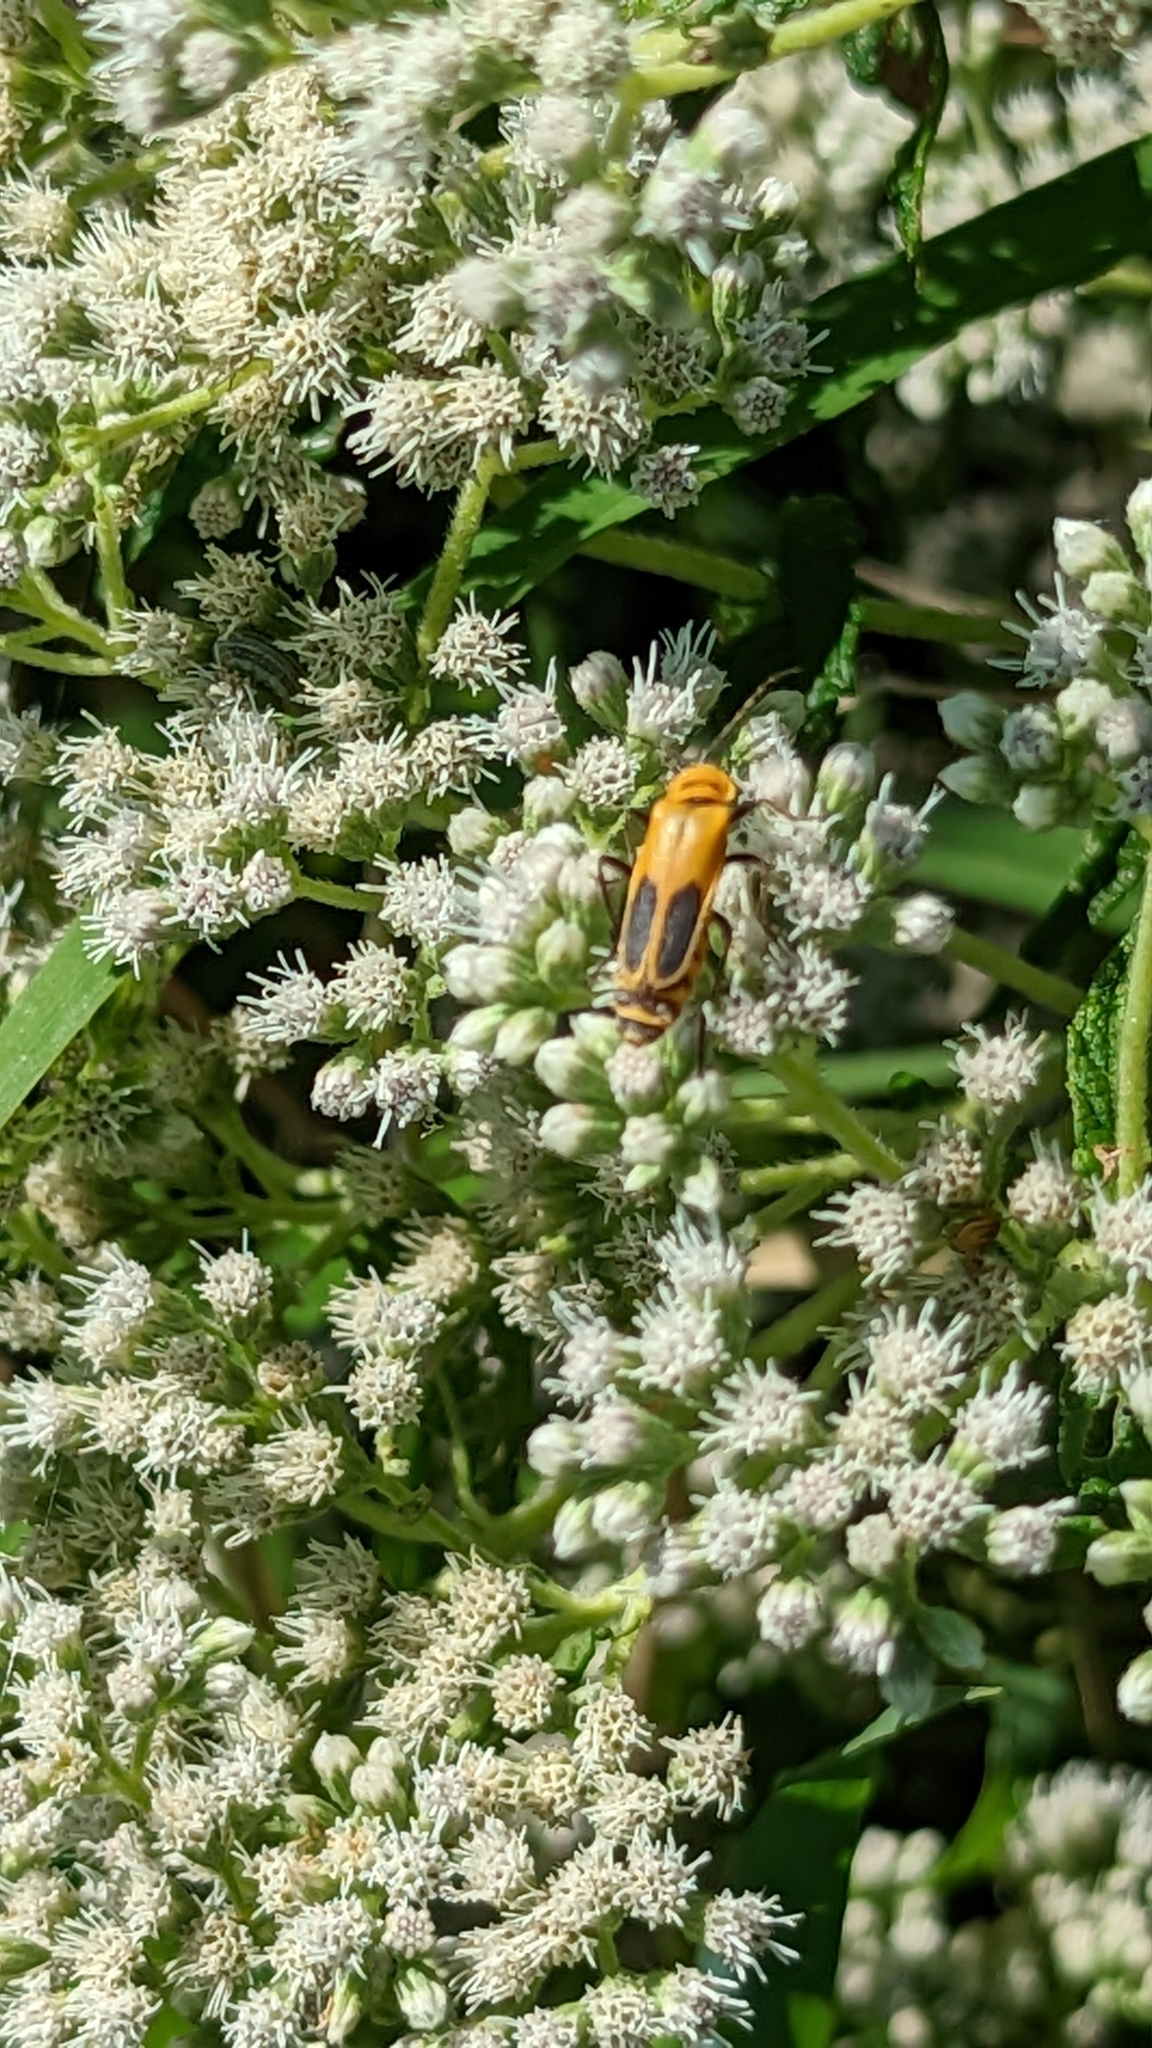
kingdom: Animalia
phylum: Arthropoda
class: Insecta
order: Coleoptera
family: Cantharidae
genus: Chauliognathus
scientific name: Chauliognathus pensylvanicus
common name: Goldenrod soldier beetle
